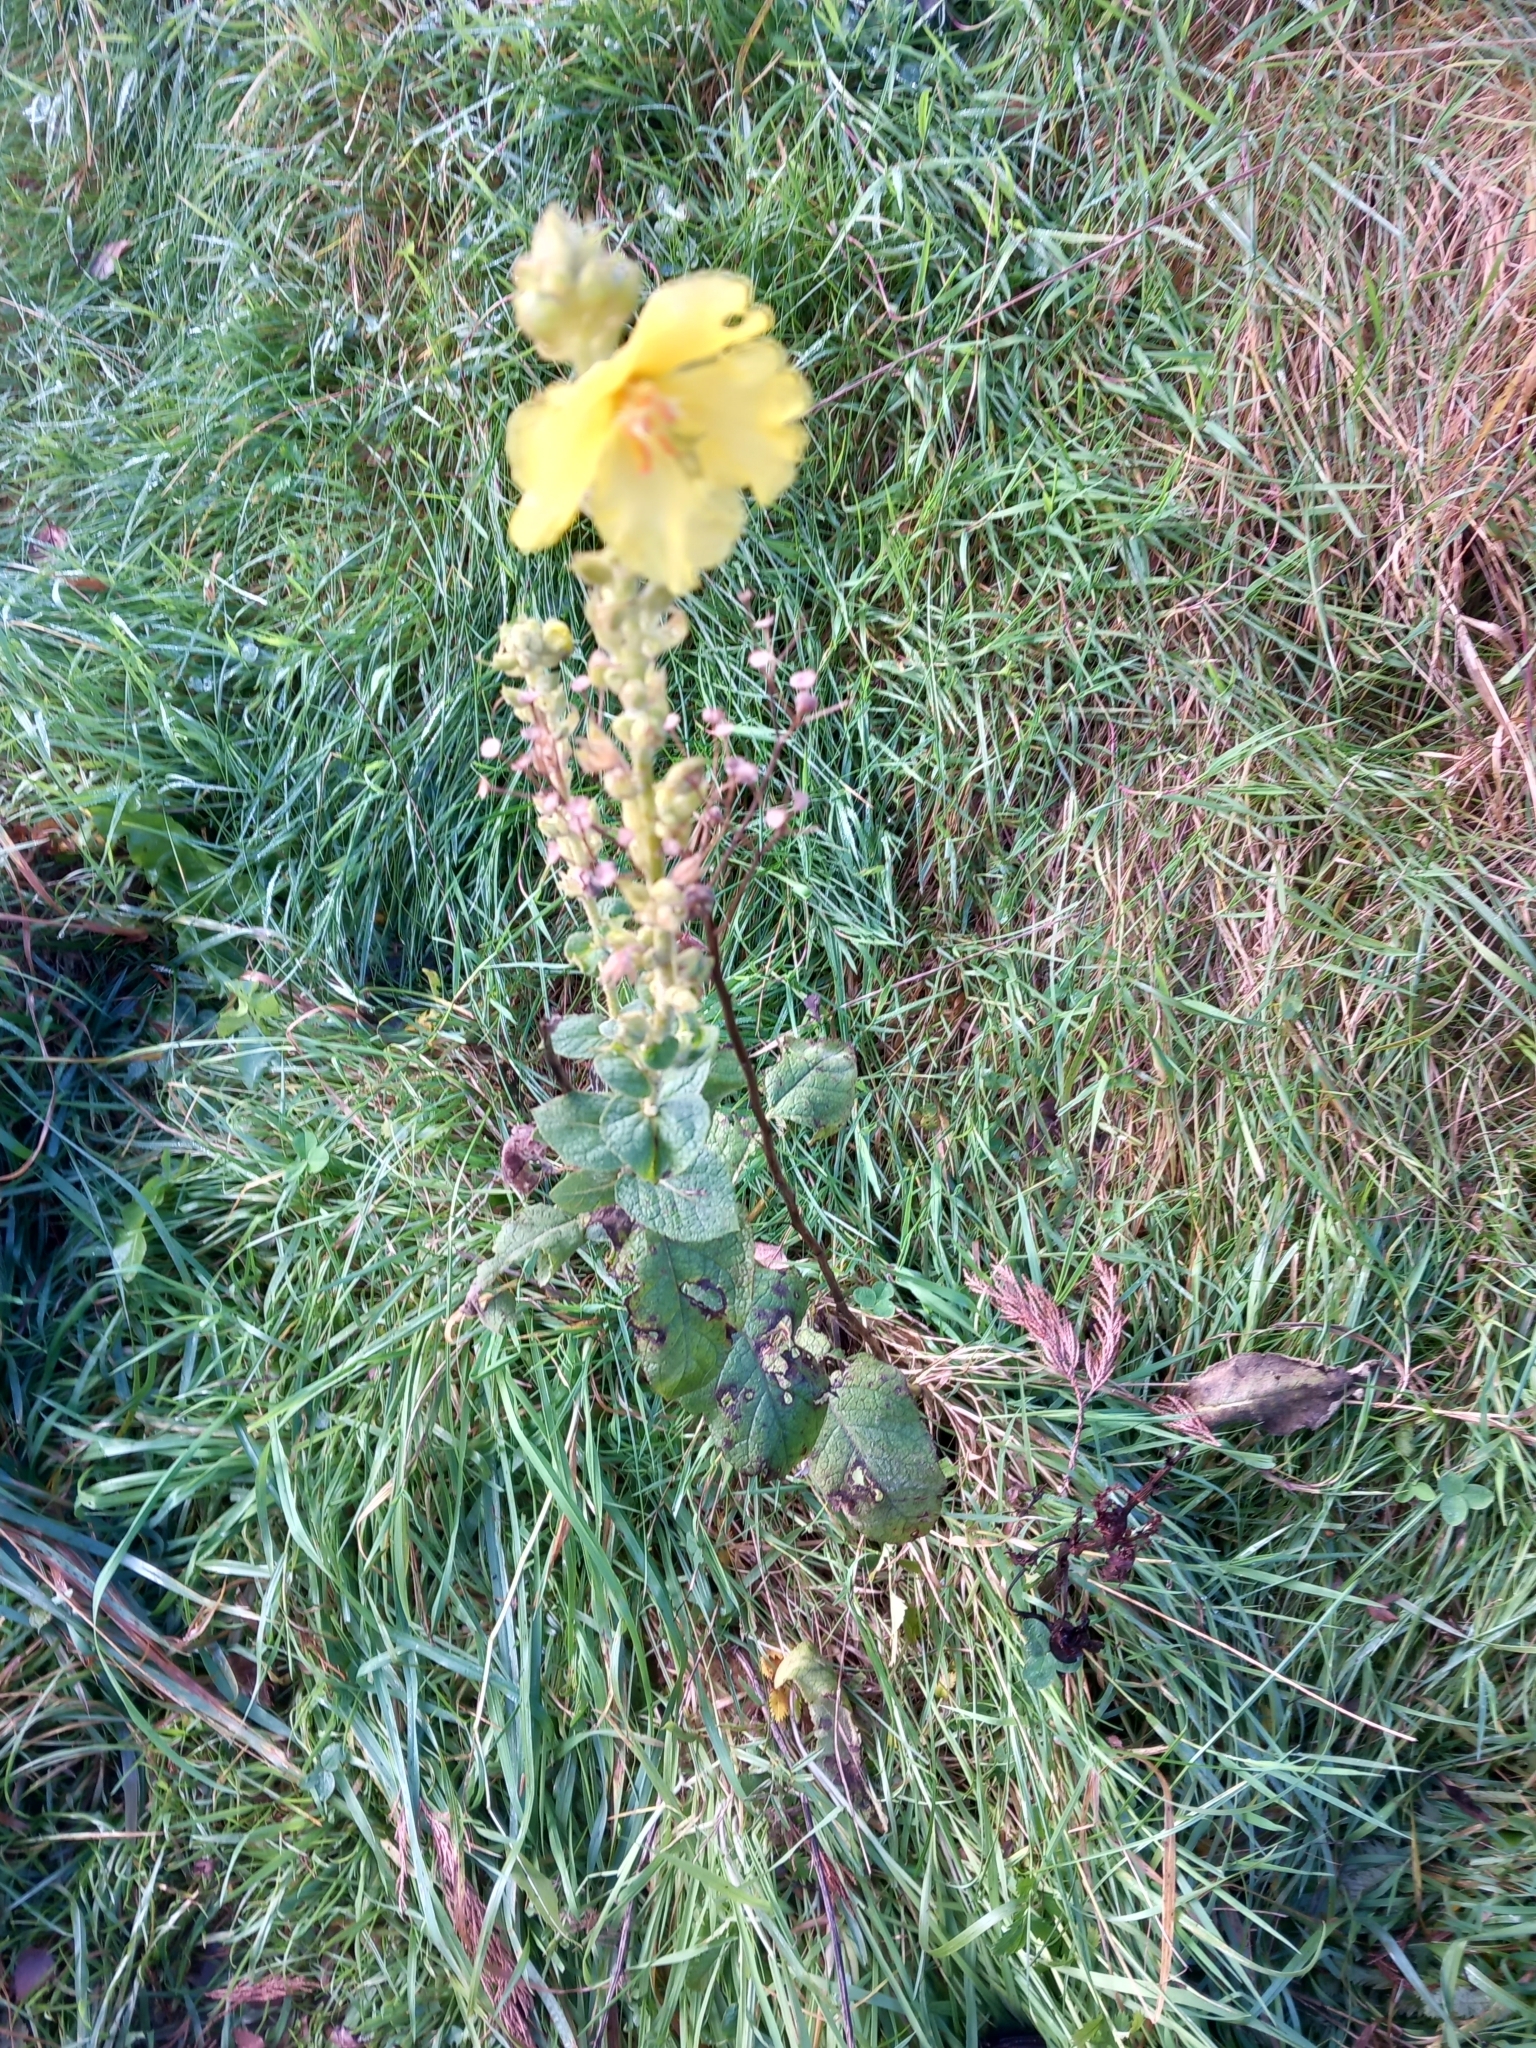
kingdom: Plantae
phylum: Tracheophyta
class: Magnoliopsida
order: Lamiales
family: Scrophulariaceae
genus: Verbascum
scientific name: Verbascum phlomoides
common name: Orange mullein
